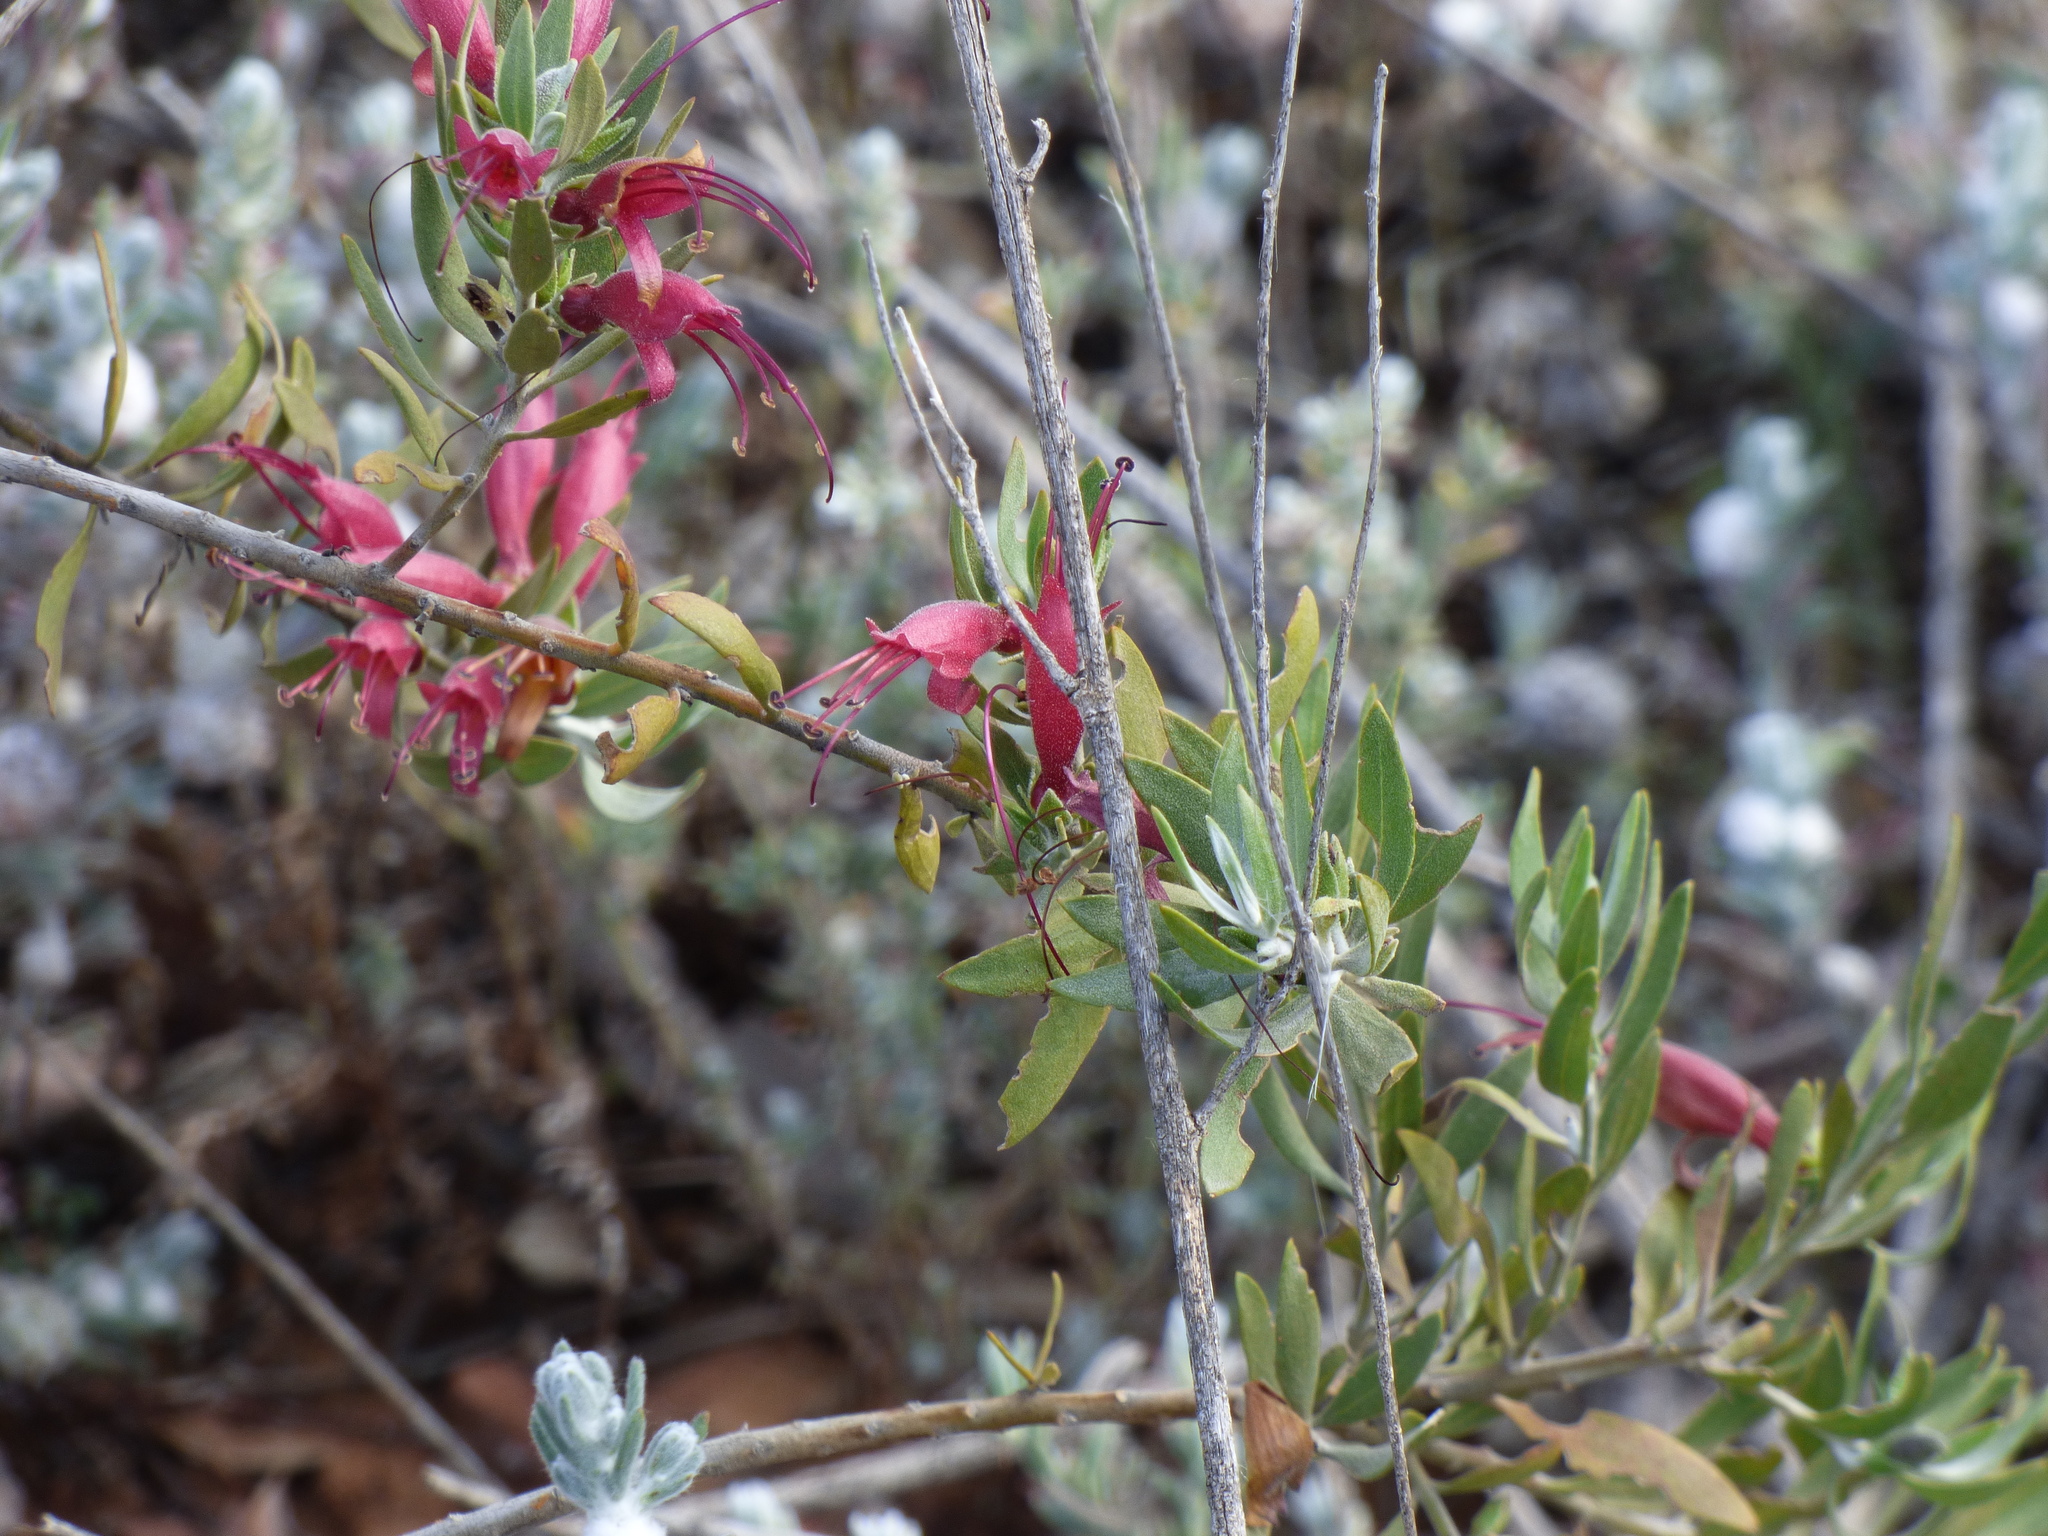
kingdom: Plantae
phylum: Tracheophyta
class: Magnoliopsida
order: Lamiales
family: Scrophulariaceae
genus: Eremophila
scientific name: Eremophila glabra
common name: Black-fuchsia
